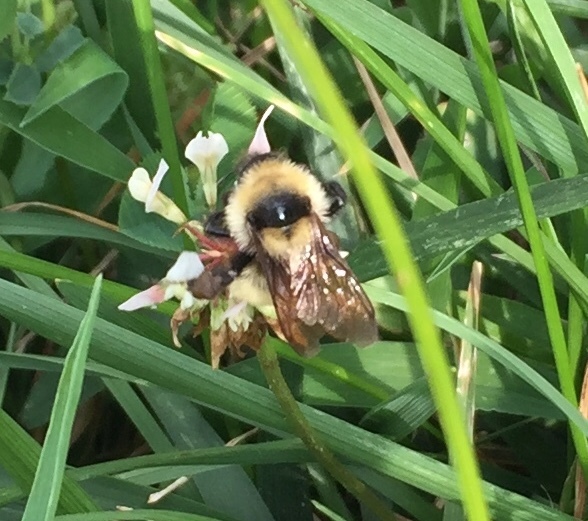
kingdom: Animalia
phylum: Arthropoda
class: Insecta
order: Hymenoptera
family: Apidae
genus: Bombus
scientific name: Bombus fervidus
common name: Yellow bumble bee
